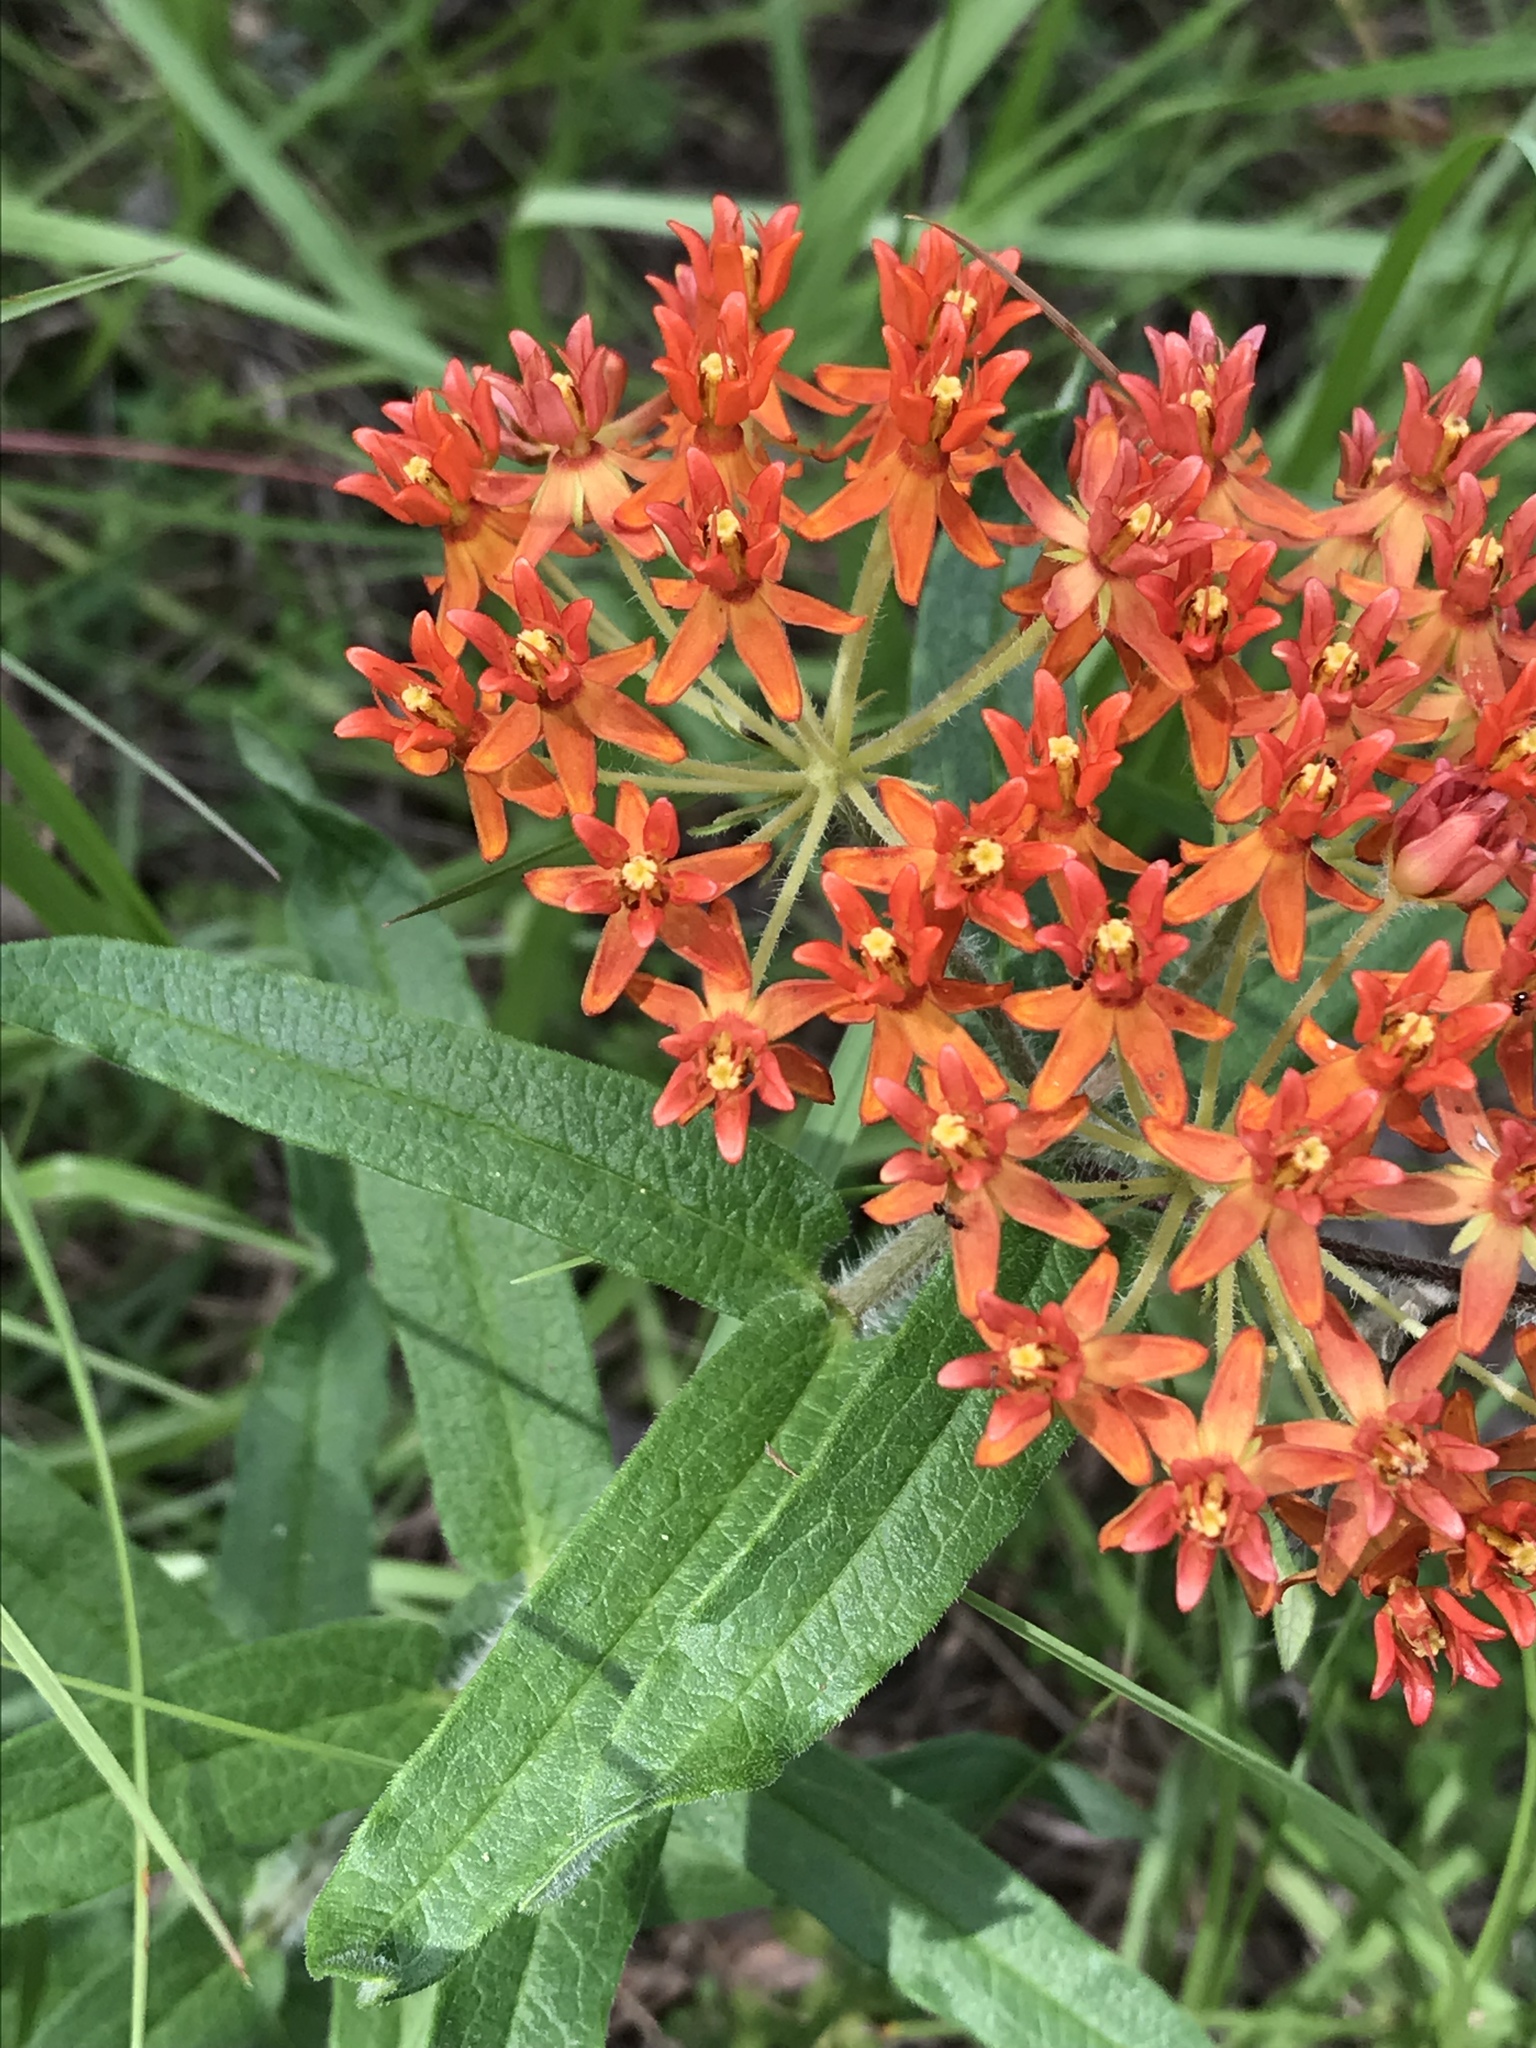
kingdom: Plantae
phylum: Tracheophyta
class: Magnoliopsida
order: Gentianales
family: Apocynaceae
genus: Asclepias
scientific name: Asclepias tuberosa
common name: Butterfly milkweed
